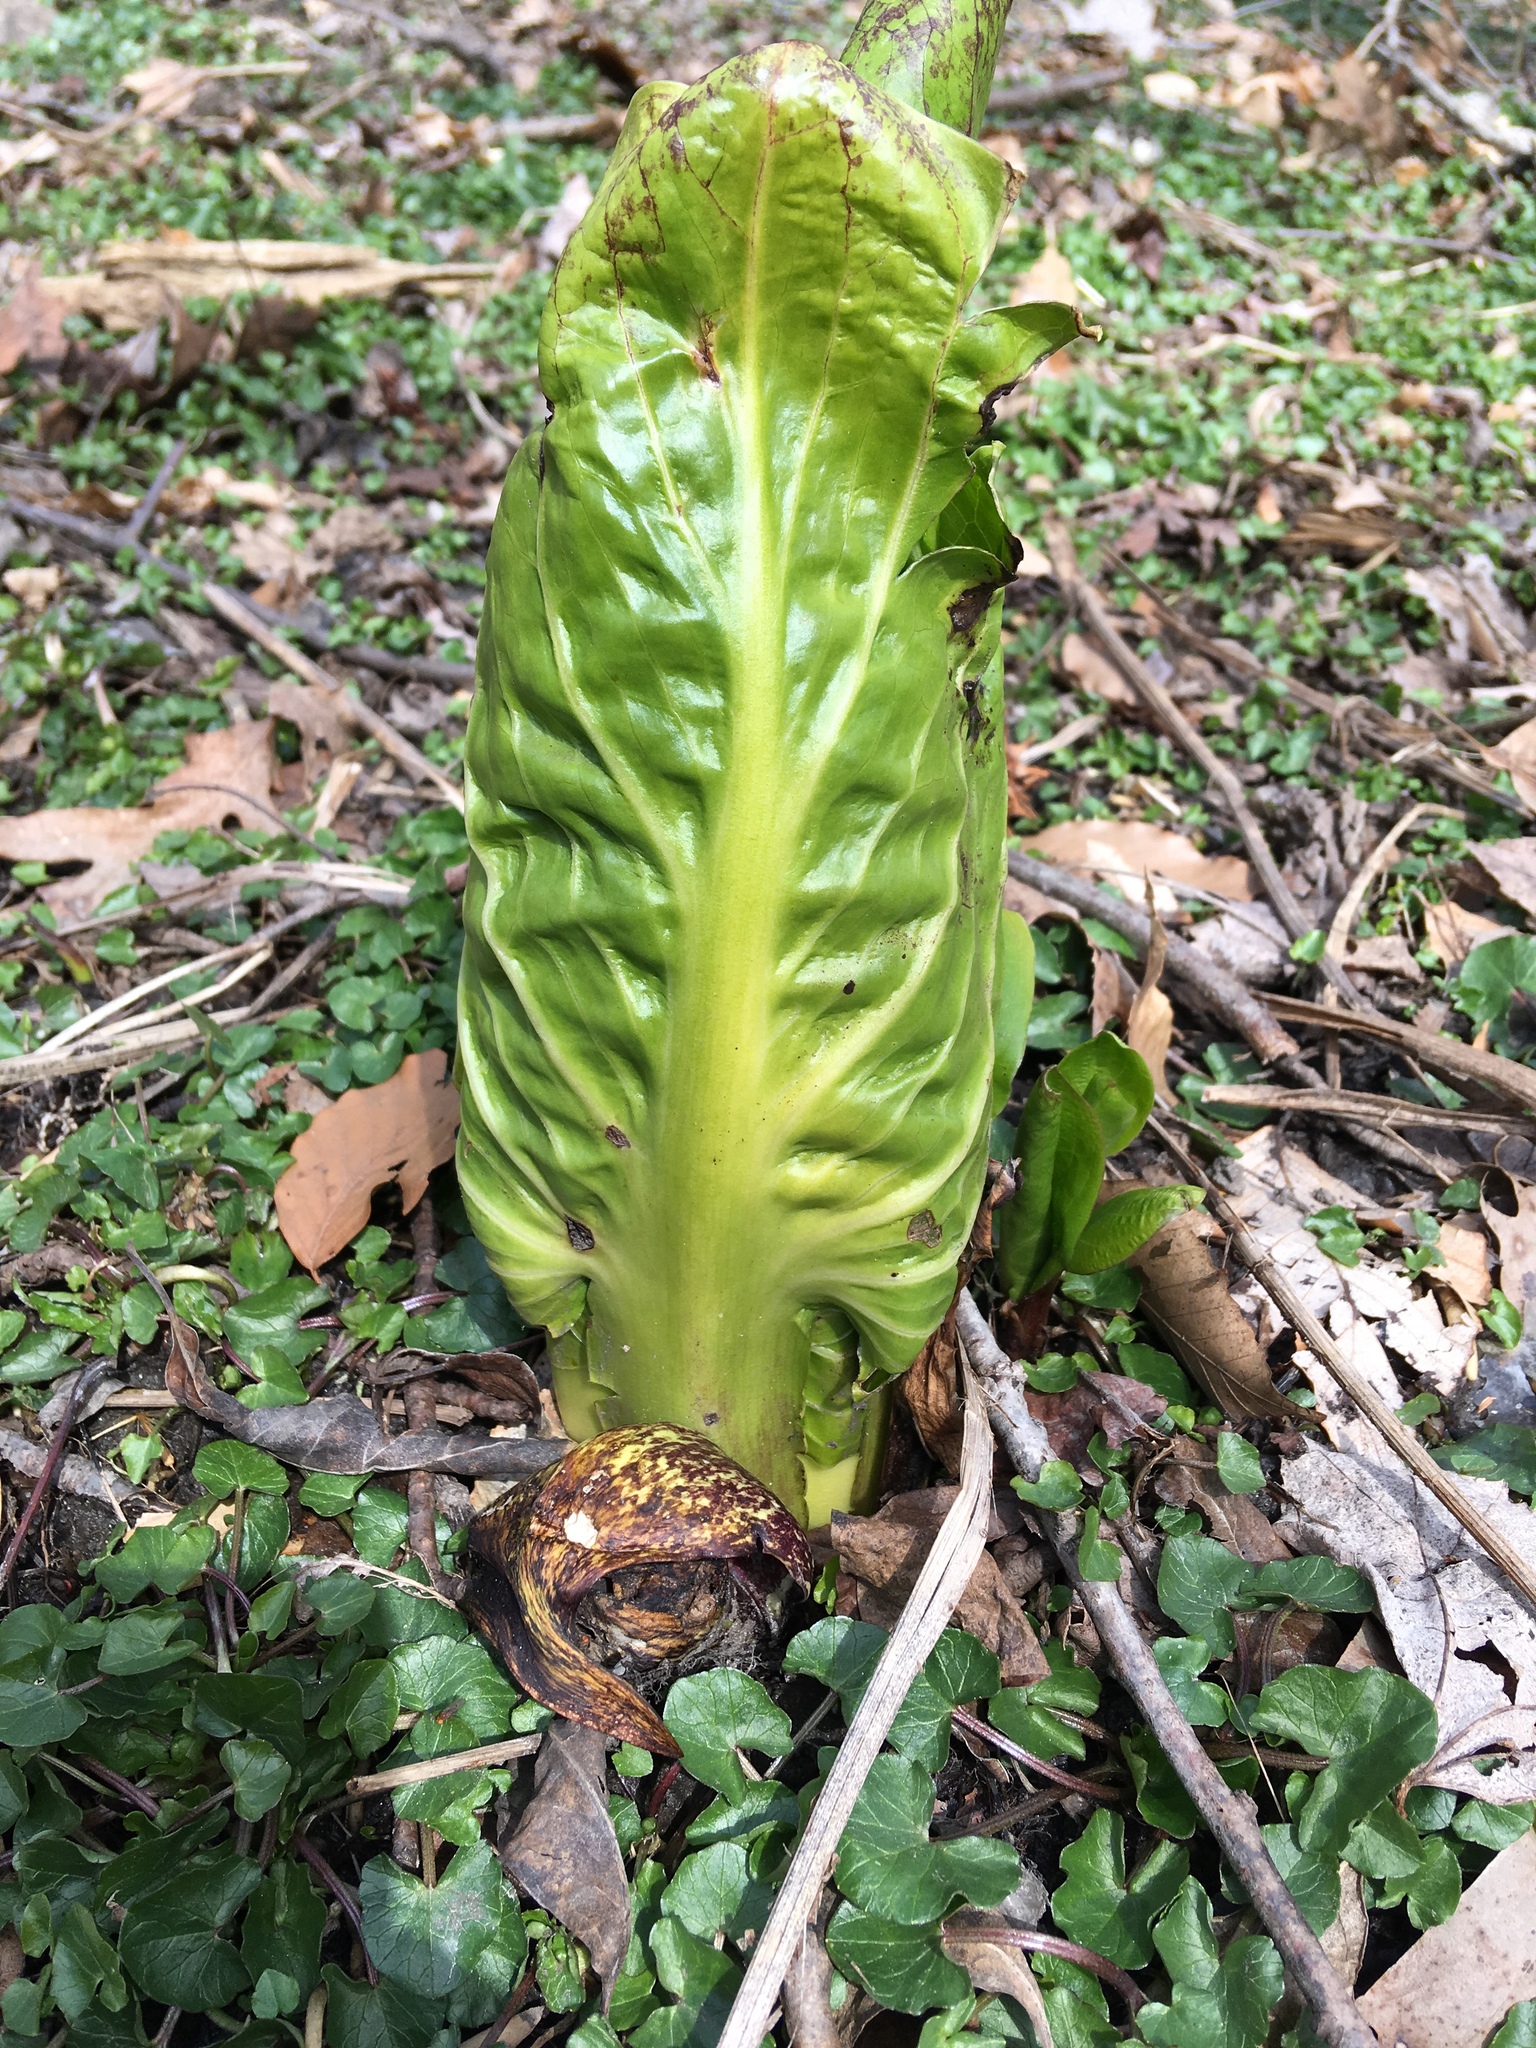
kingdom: Plantae
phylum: Tracheophyta
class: Liliopsida
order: Alismatales
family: Araceae
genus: Symplocarpus
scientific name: Symplocarpus foetidus
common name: Eastern skunk cabbage
